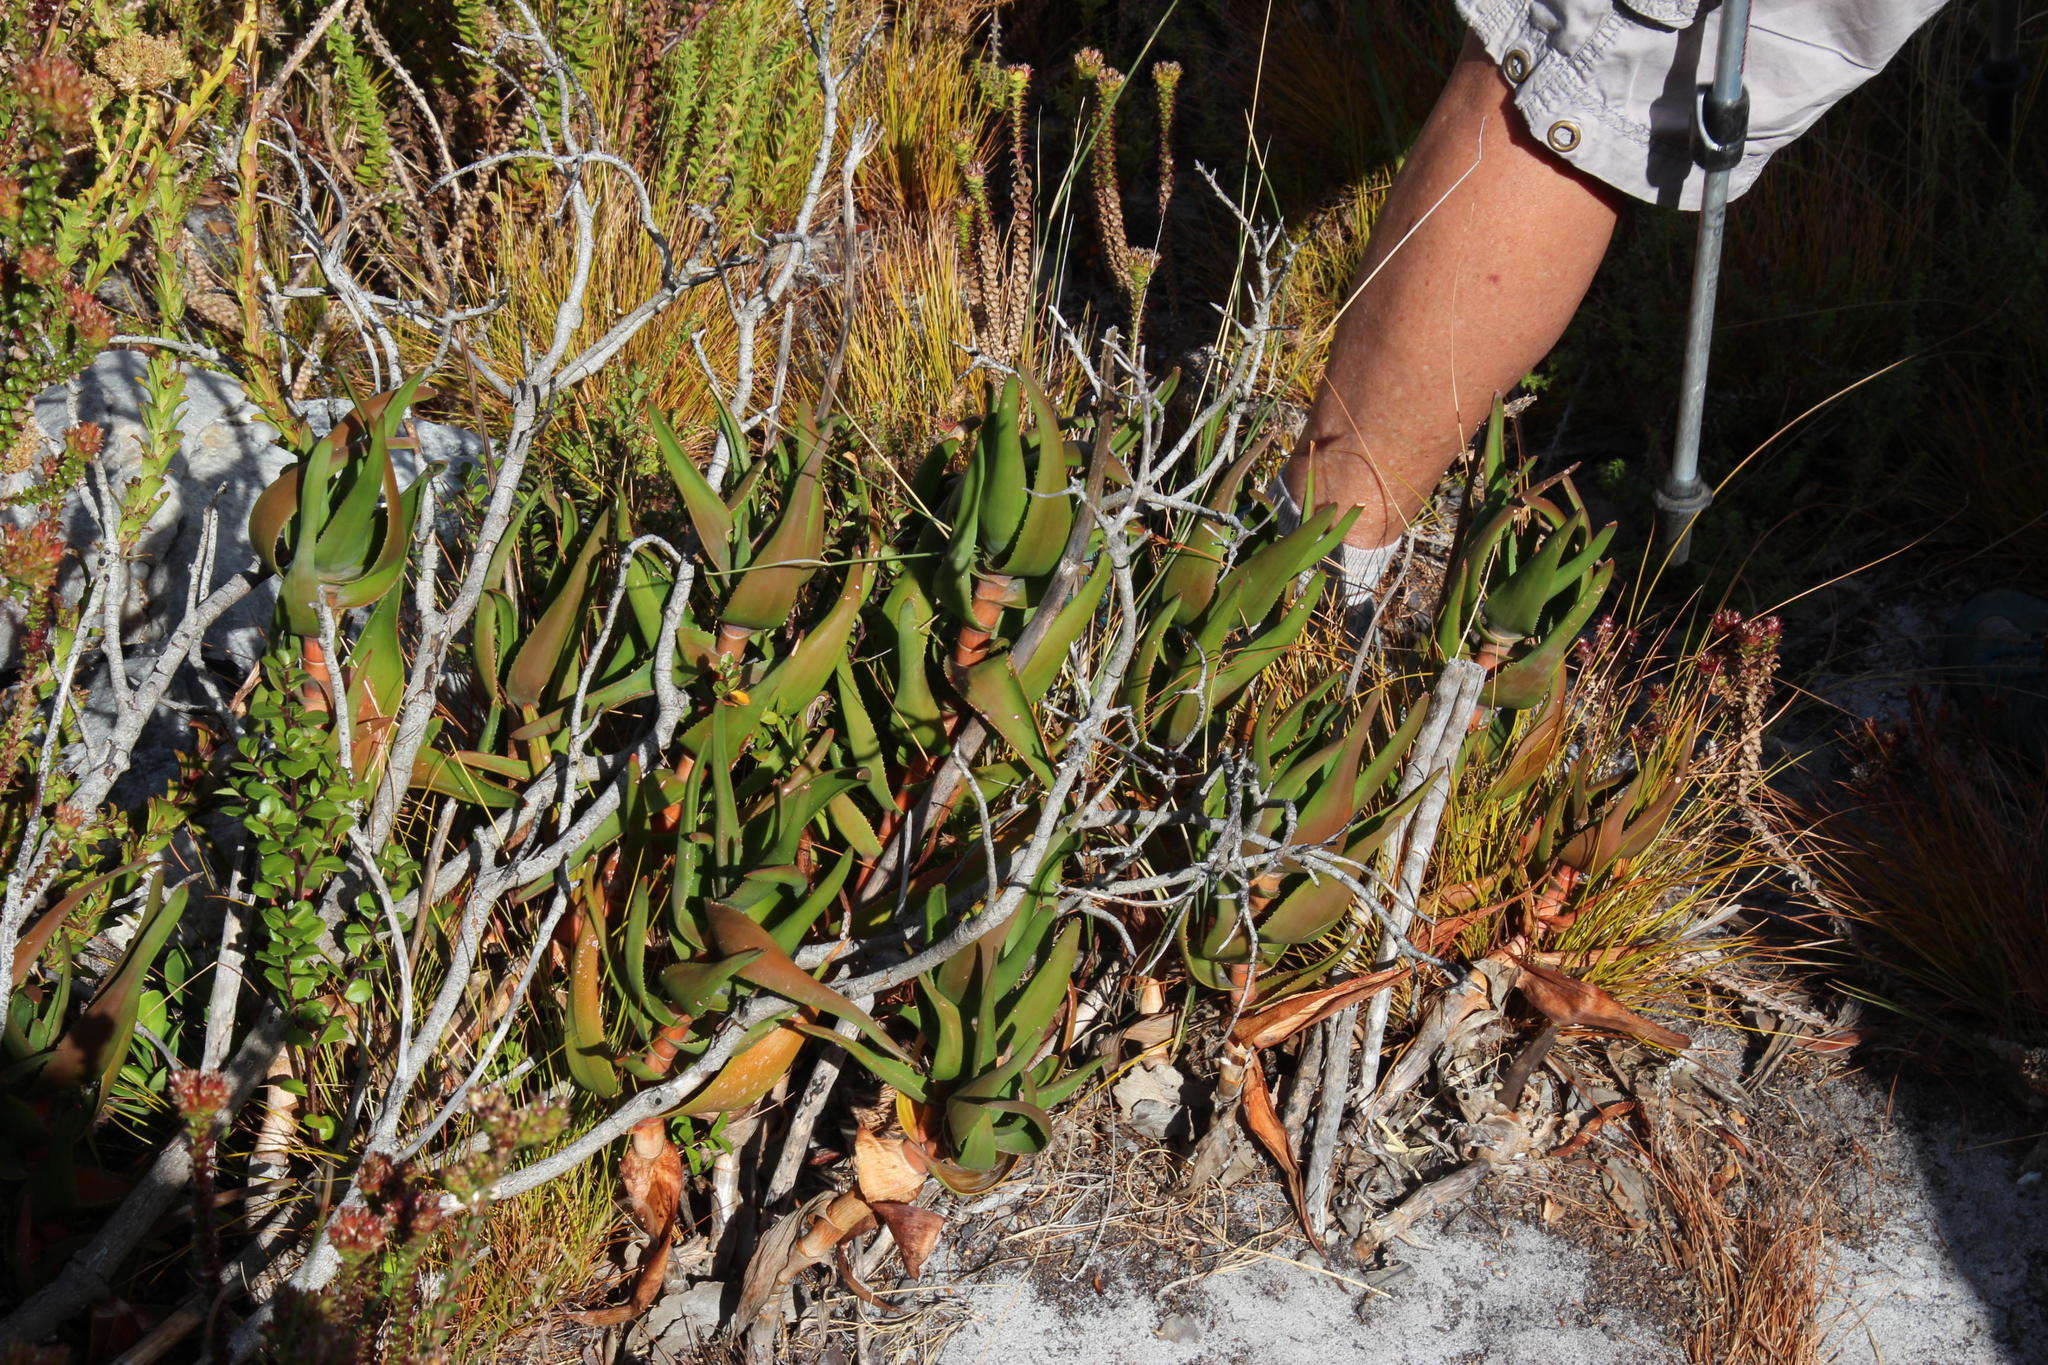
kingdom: Plantae
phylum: Tracheophyta
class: Liliopsida
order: Asparagales
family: Asphodelaceae
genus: Aloiampelos
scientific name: Aloiampelos commixta
